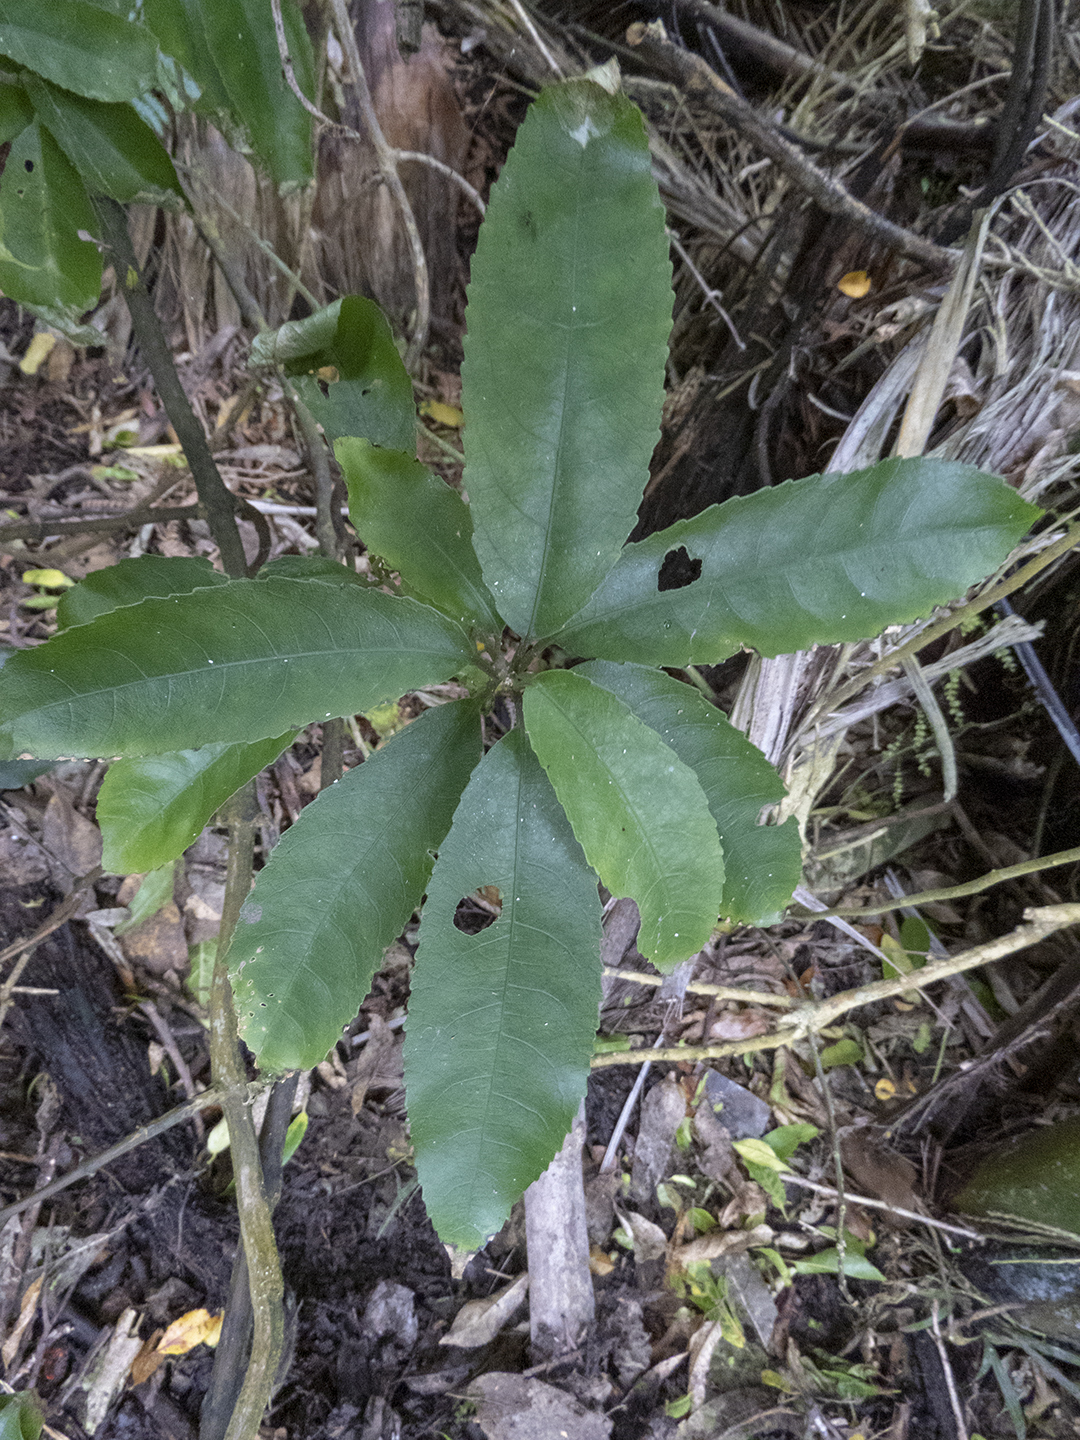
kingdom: Plantae
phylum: Tracheophyta
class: Magnoliopsida
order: Malpighiales
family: Violaceae
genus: Melicytus
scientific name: Melicytus ramiflorus
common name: Mahoe
